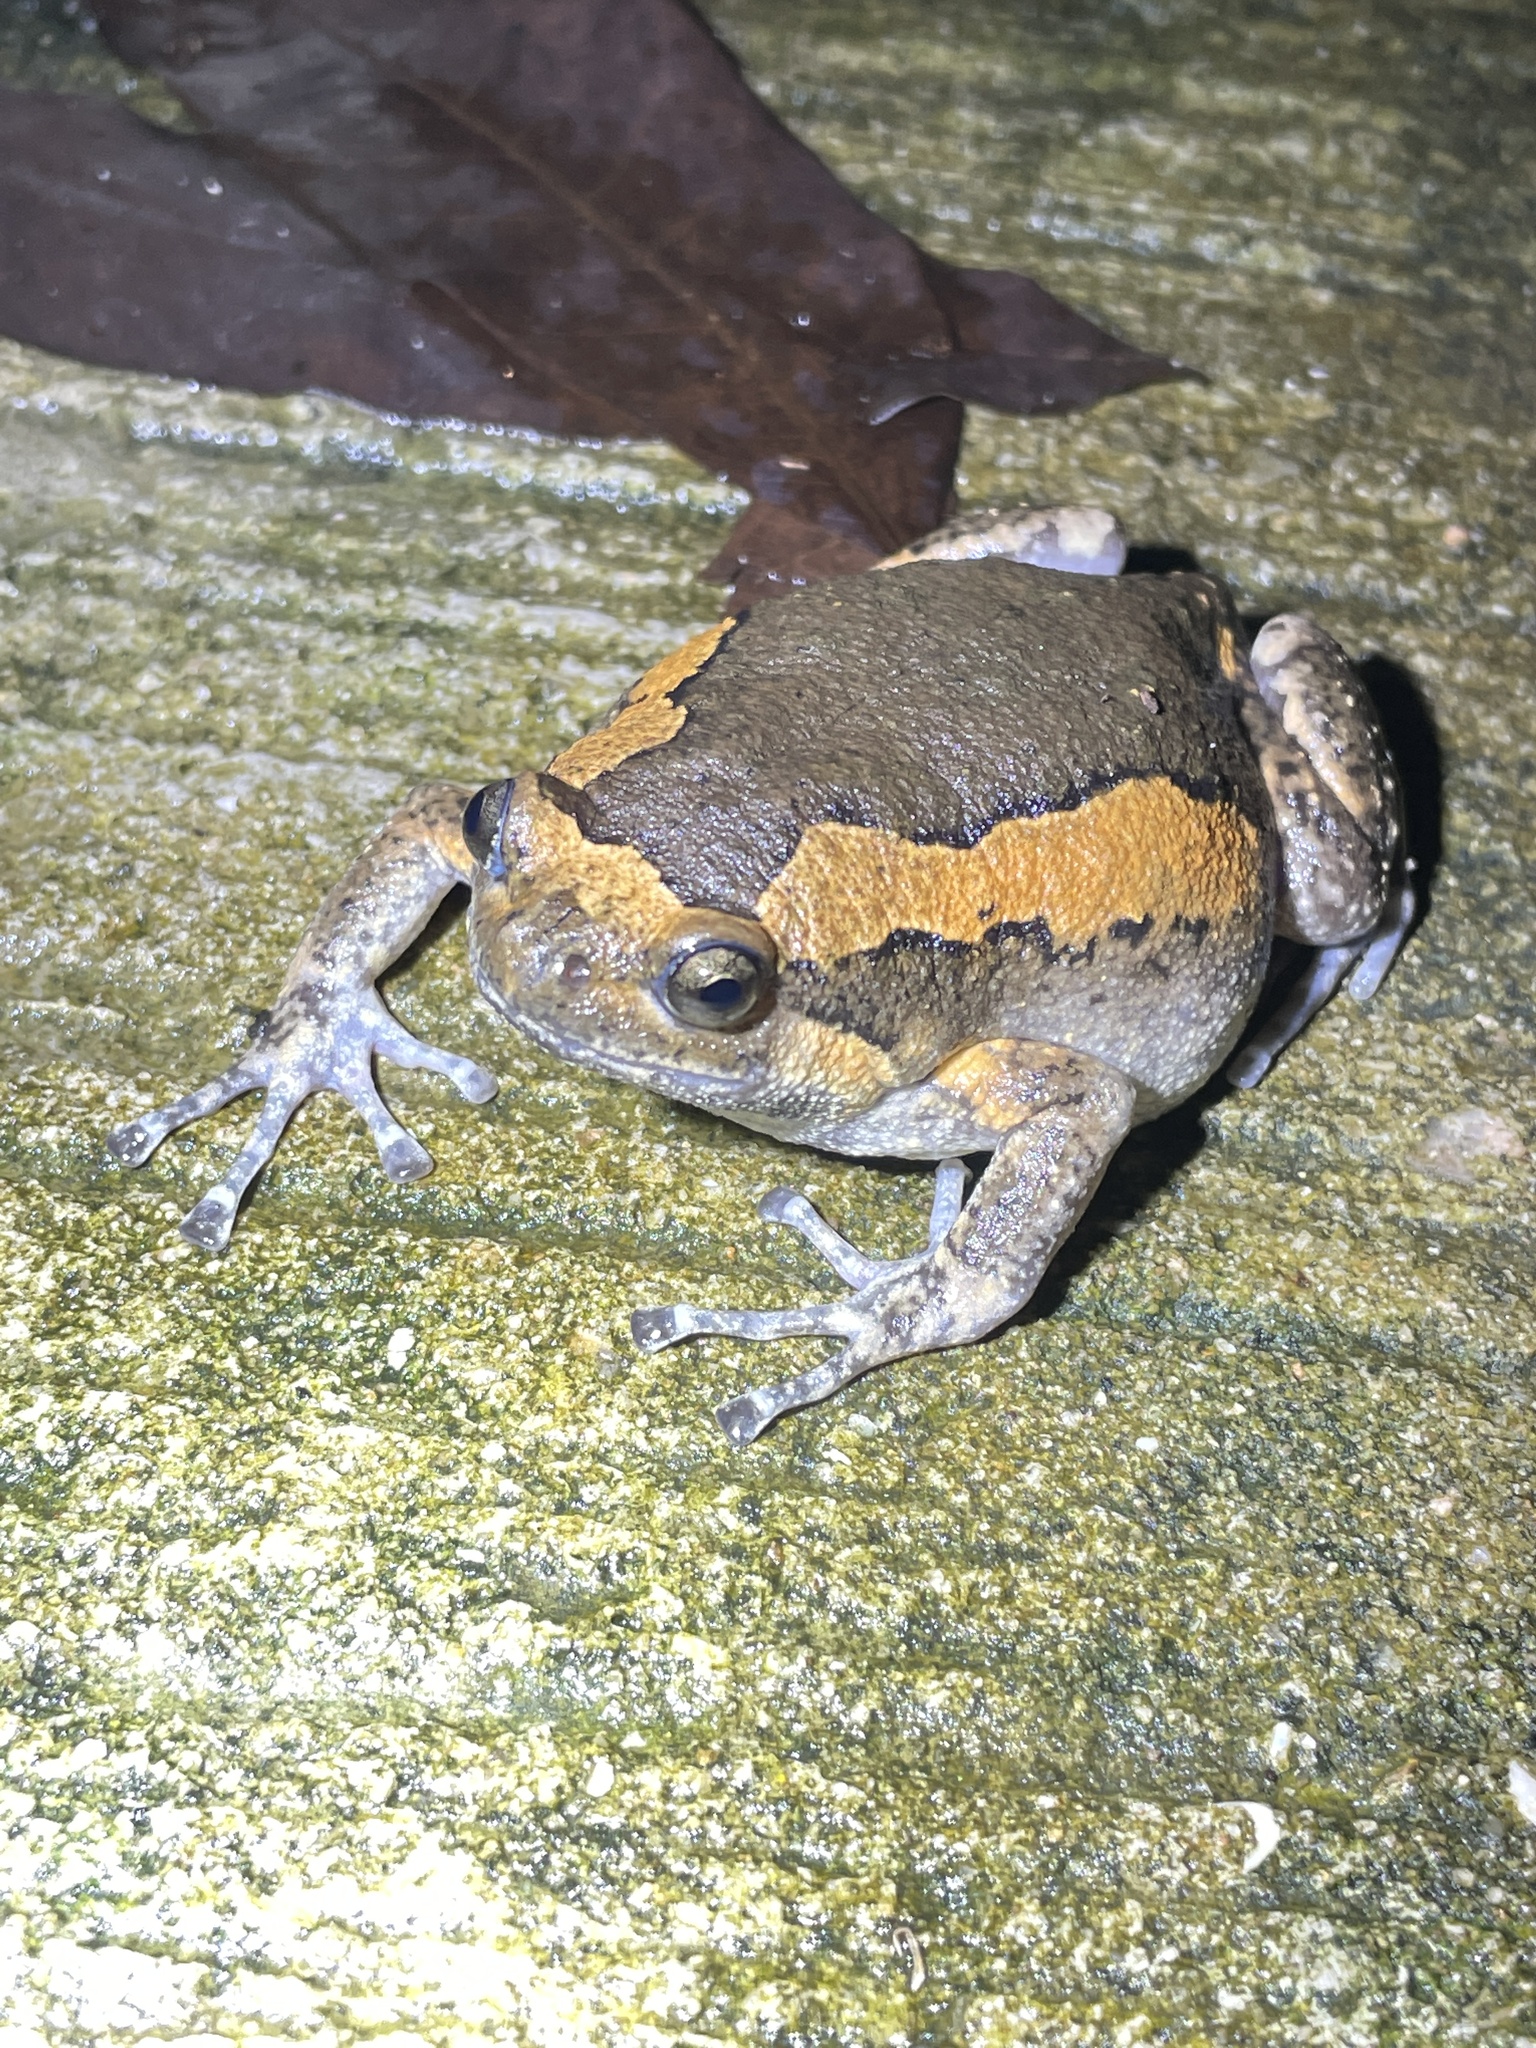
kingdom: Animalia
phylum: Chordata
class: Amphibia
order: Anura
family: Microhylidae
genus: Kaloula
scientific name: Kaloula pulchra
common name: Common,banded bullfrog
